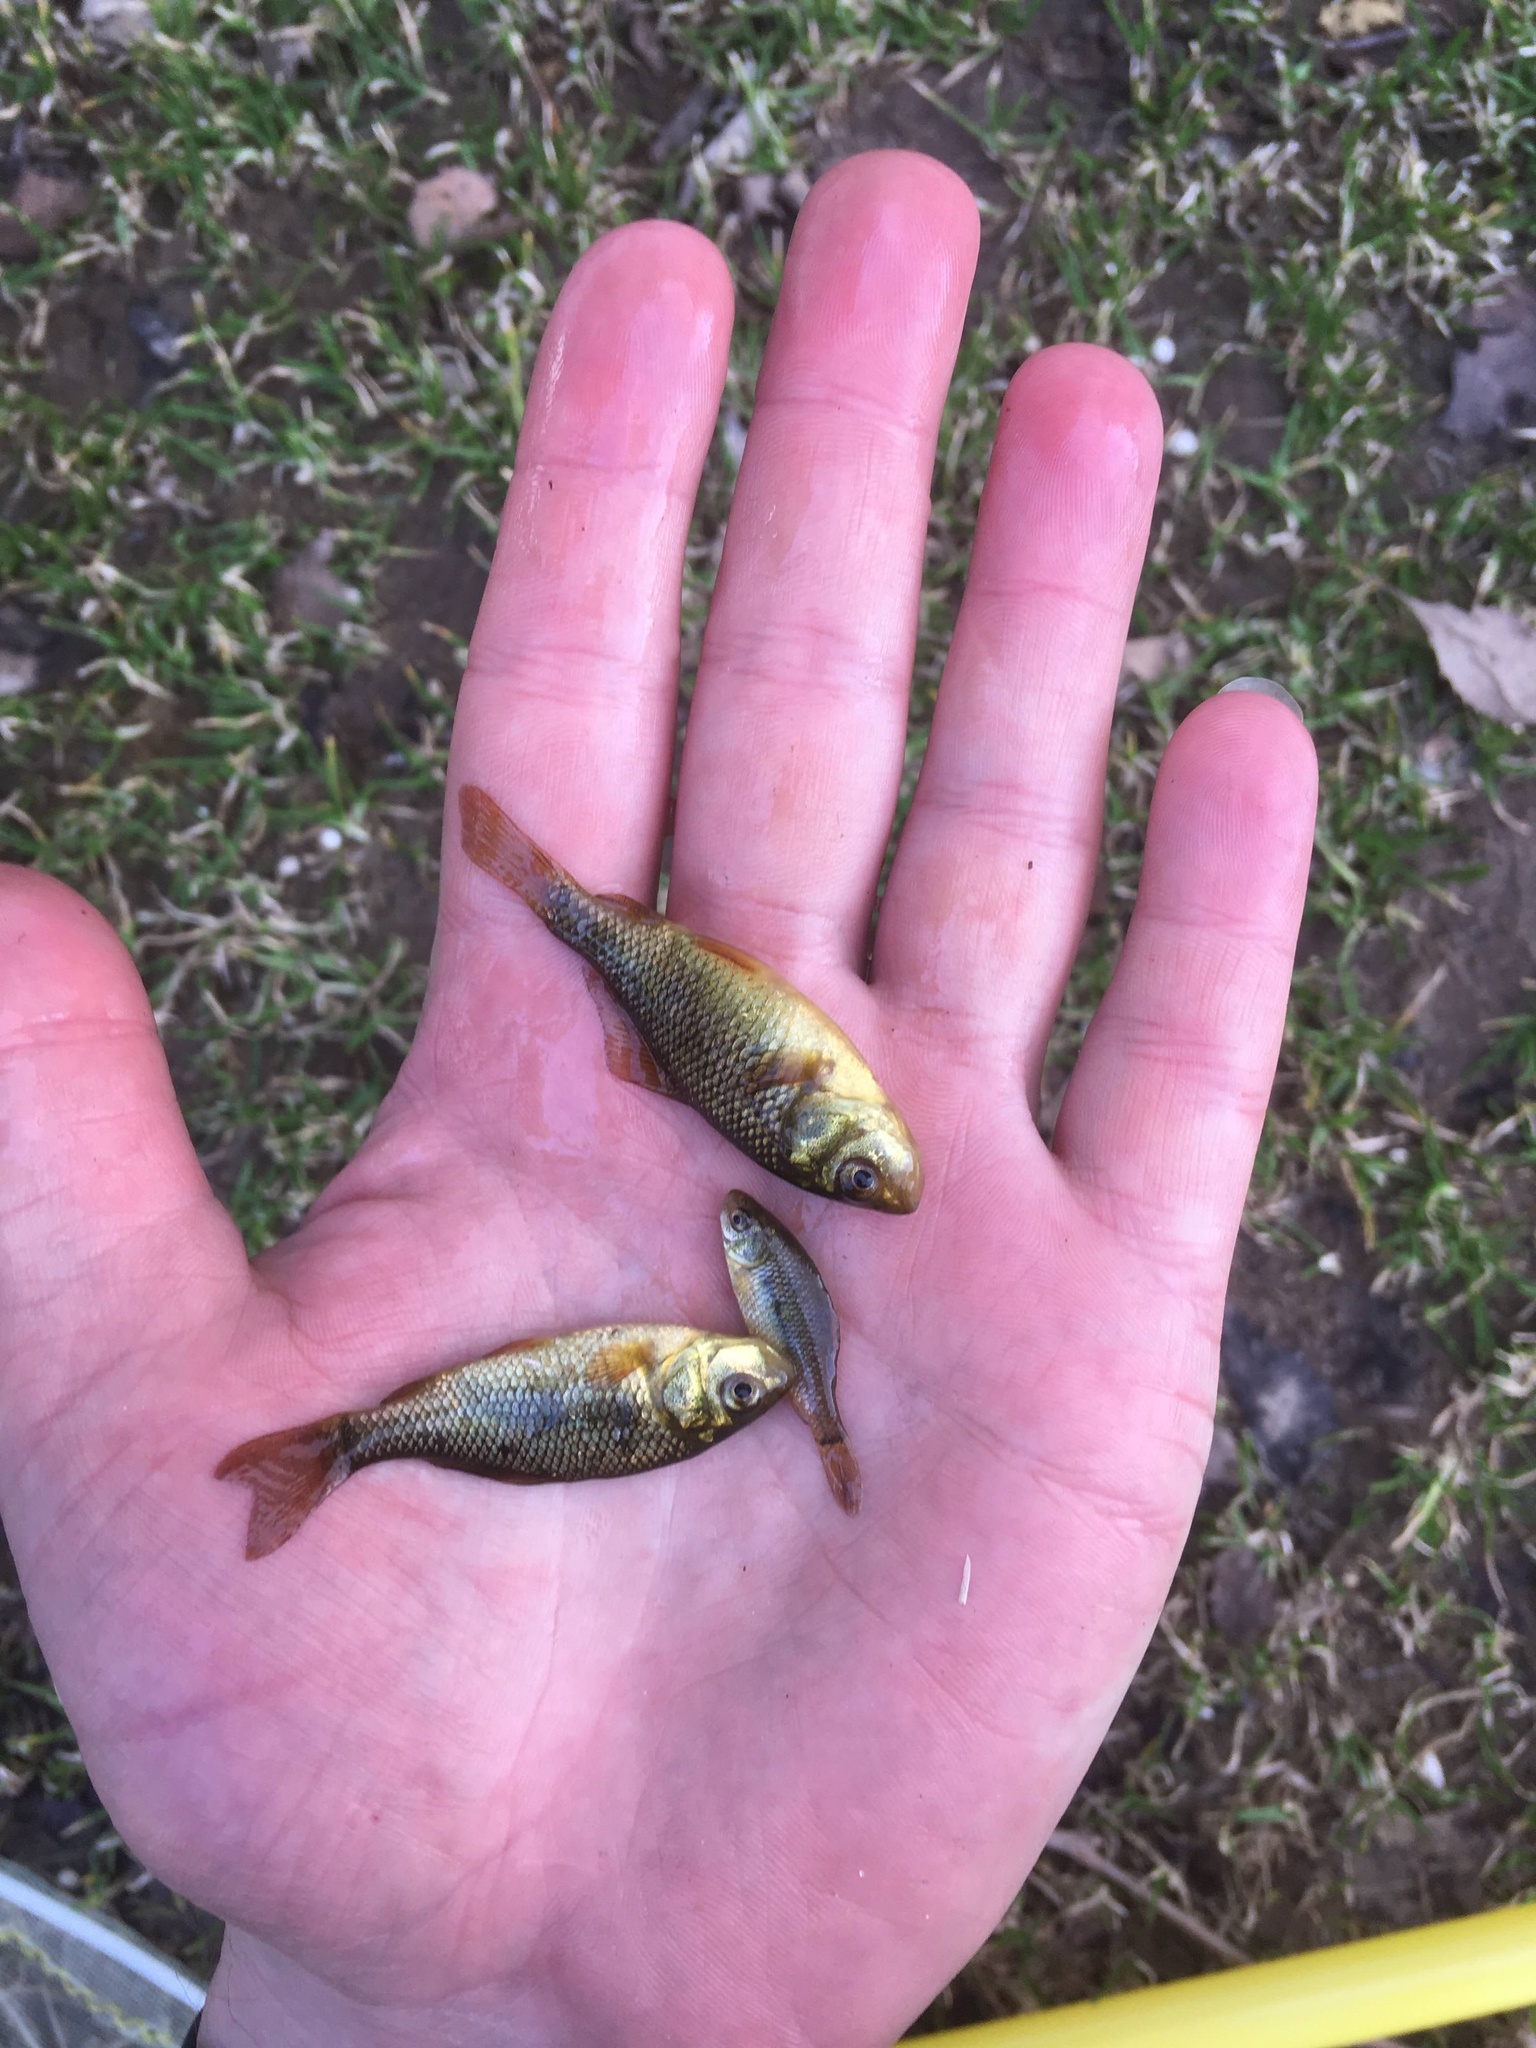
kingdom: Animalia
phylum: Chordata
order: Cypriniformes
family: Cyprinidae
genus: Carassius
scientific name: Carassius carassius
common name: Crucian carp
